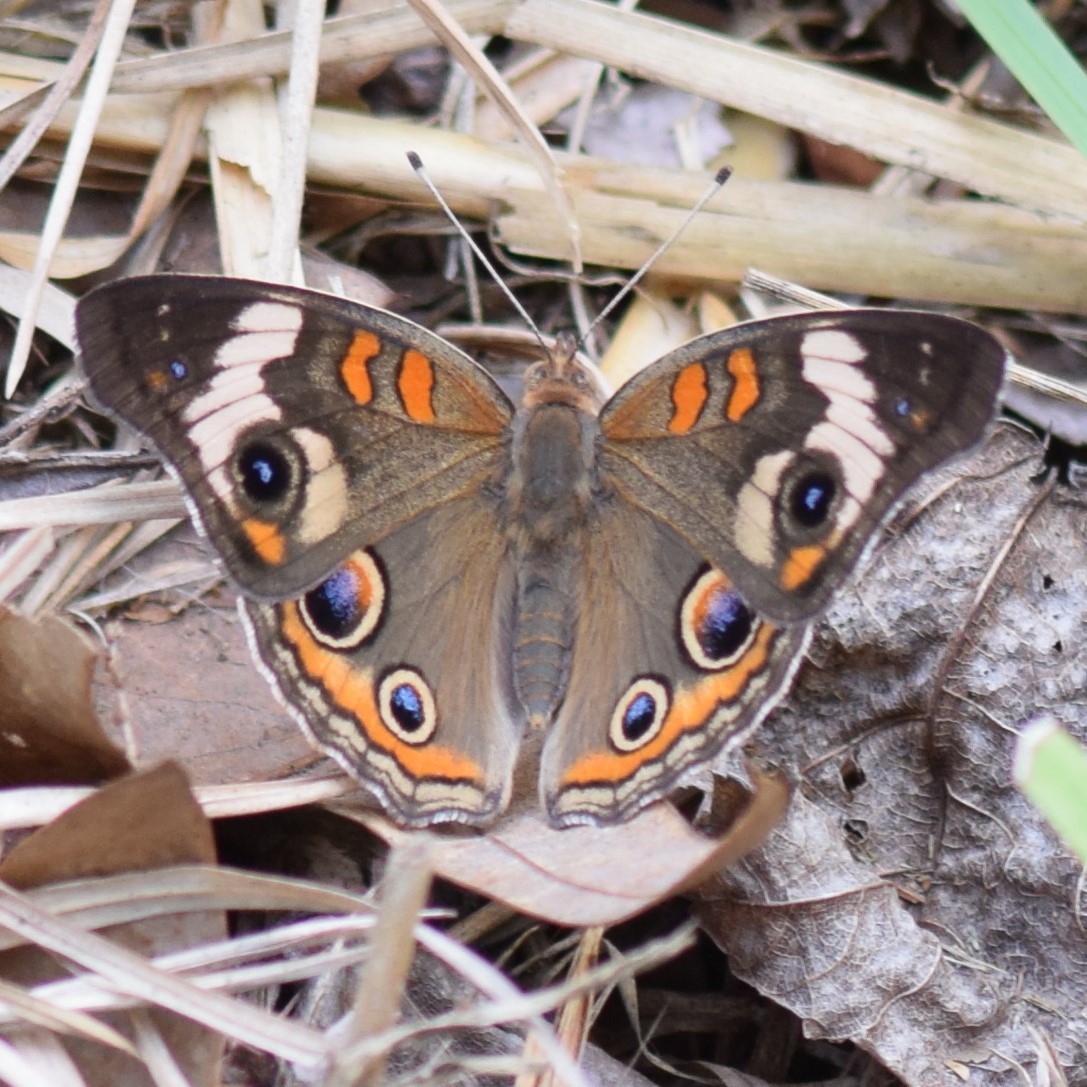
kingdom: Animalia
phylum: Arthropoda
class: Insecta
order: Lepidoptera
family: Nymphalidae
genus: Junonia
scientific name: Junonia coenia
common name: Common buckeye
